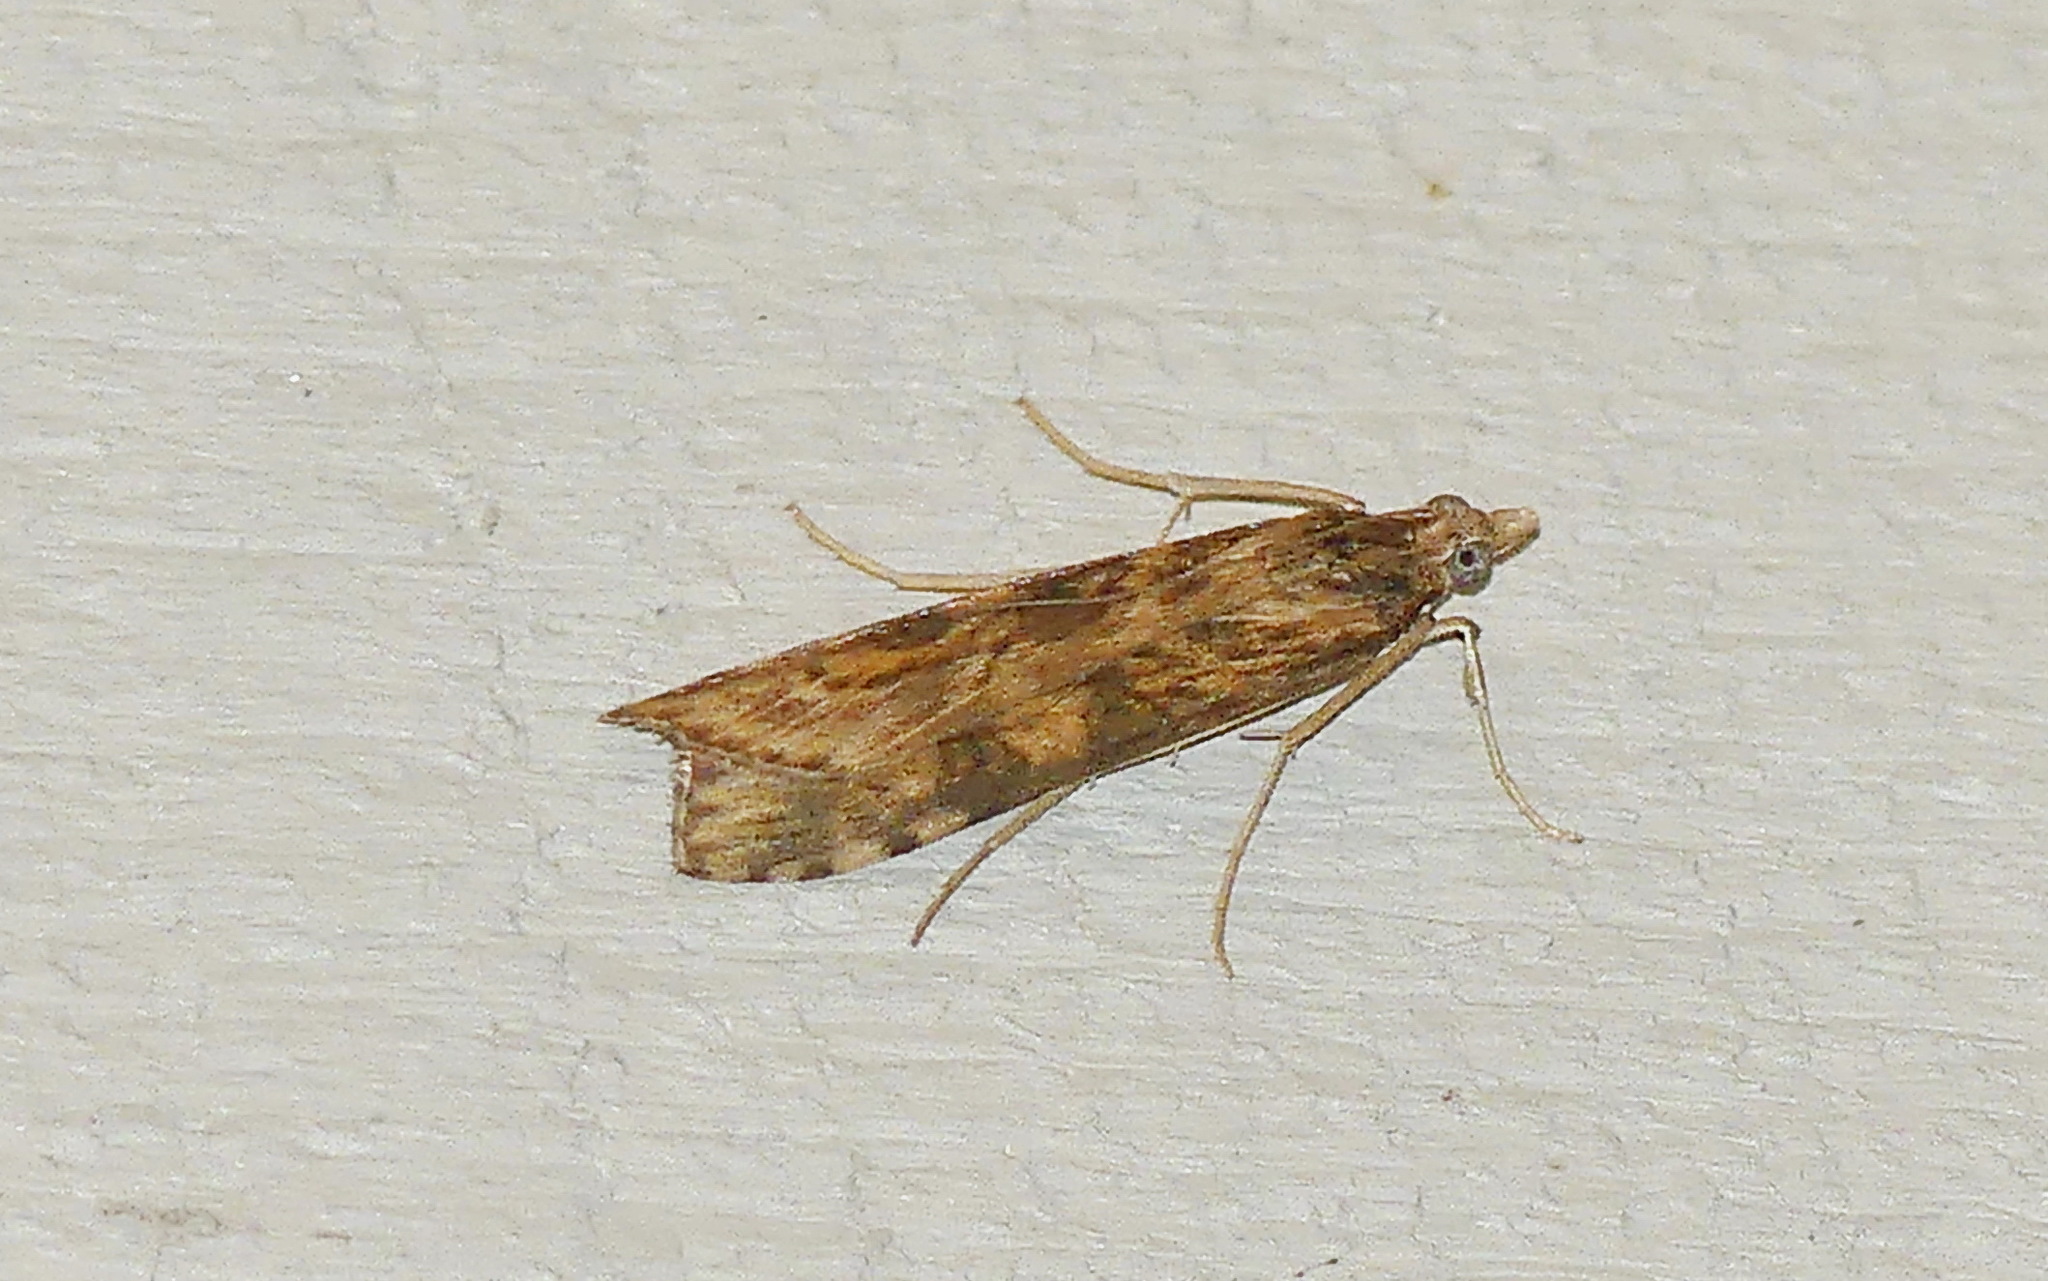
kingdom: Animalia
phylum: Arthropoda
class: Insecta
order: Lepidoptera
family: Crambidae
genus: Nomophila
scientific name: Nomophila nearctica
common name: American rush veneer
